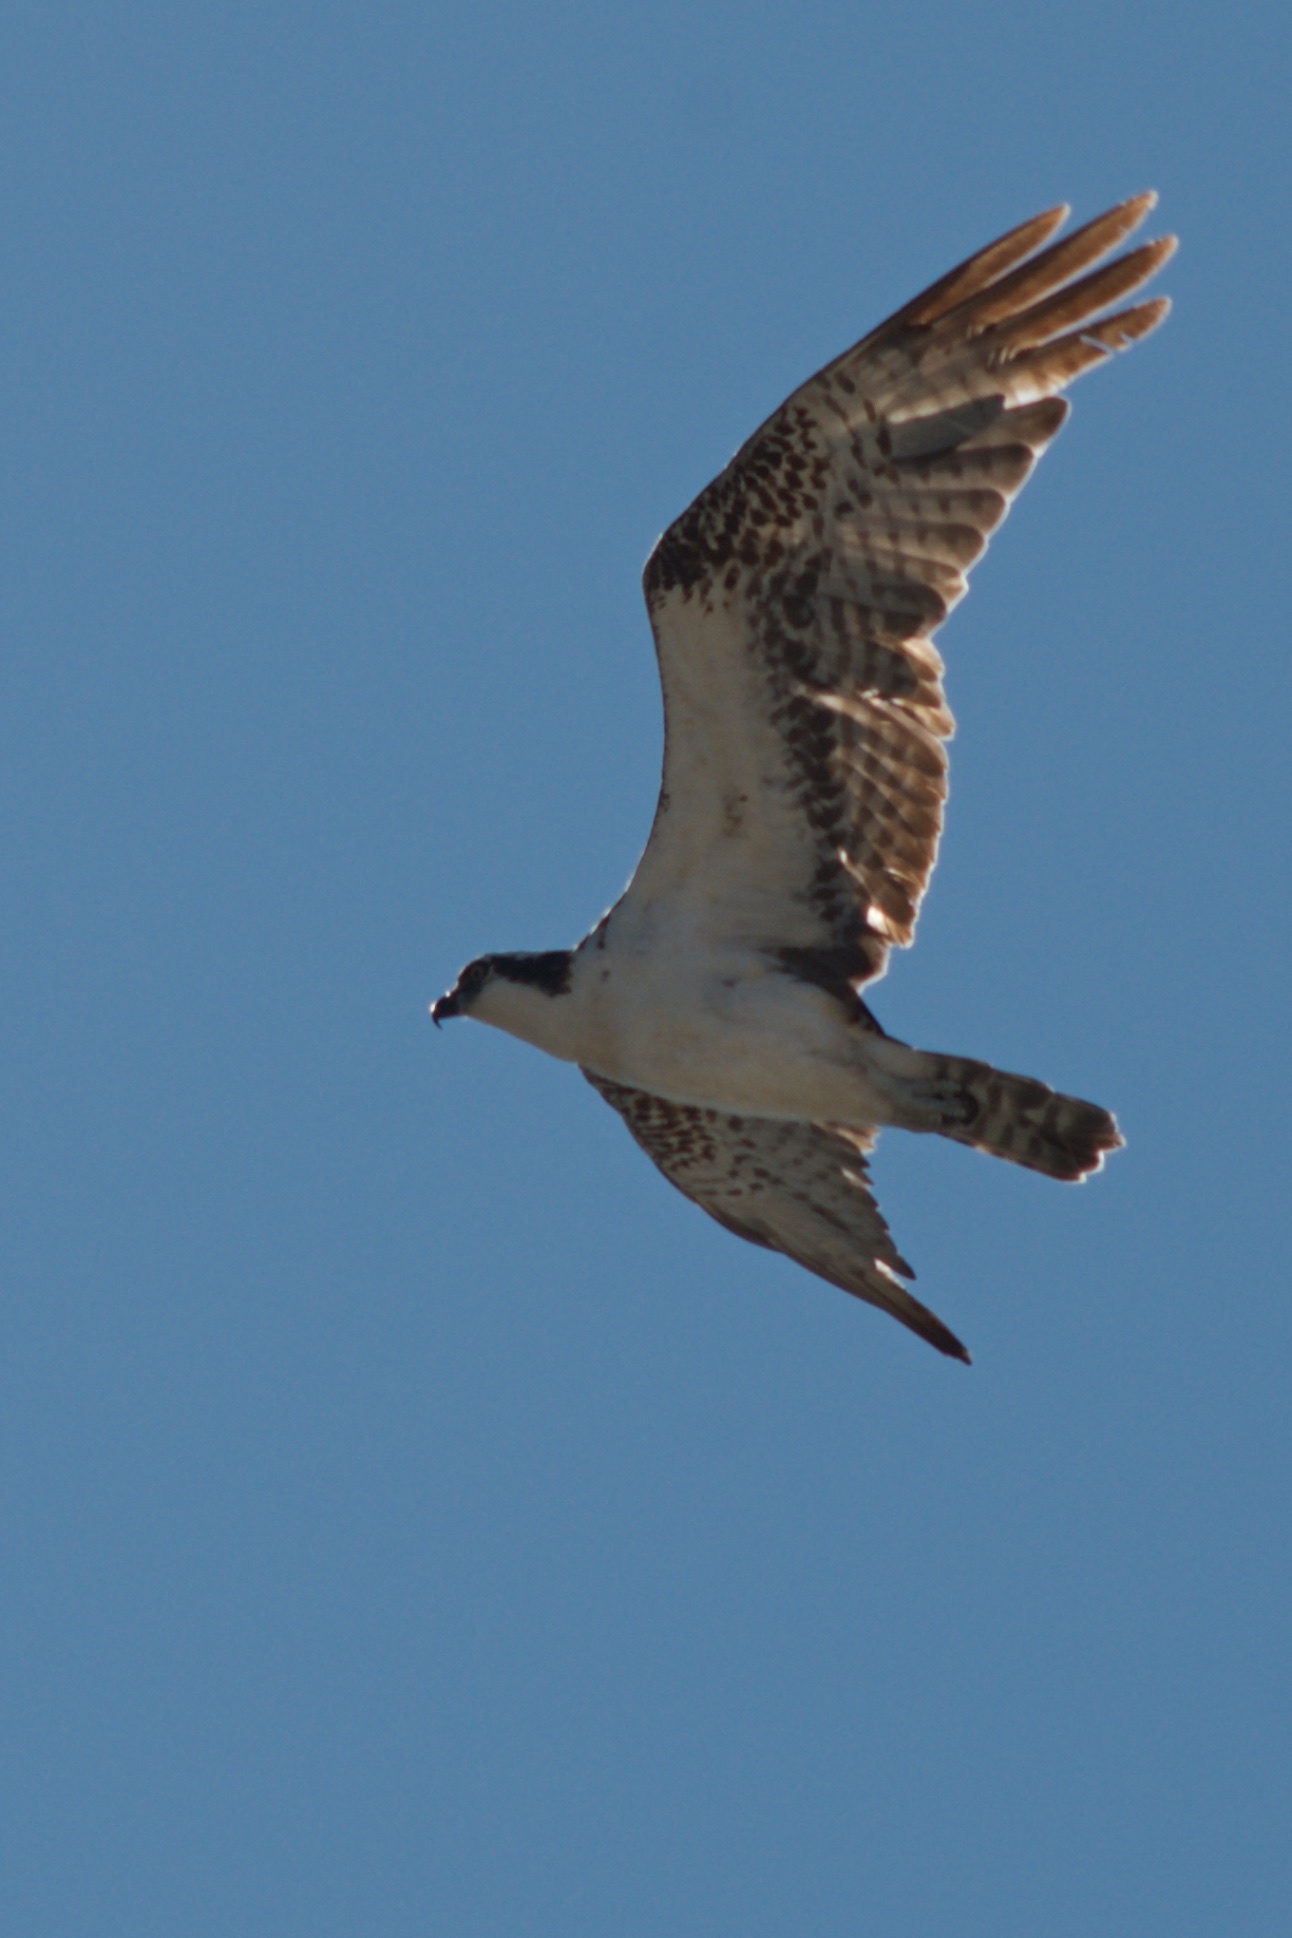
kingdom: Animalia
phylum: Chordata
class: Aves
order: Accipitriformes
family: Pandionidae
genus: Pandion
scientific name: Pandion haliaetus
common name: Osprey
